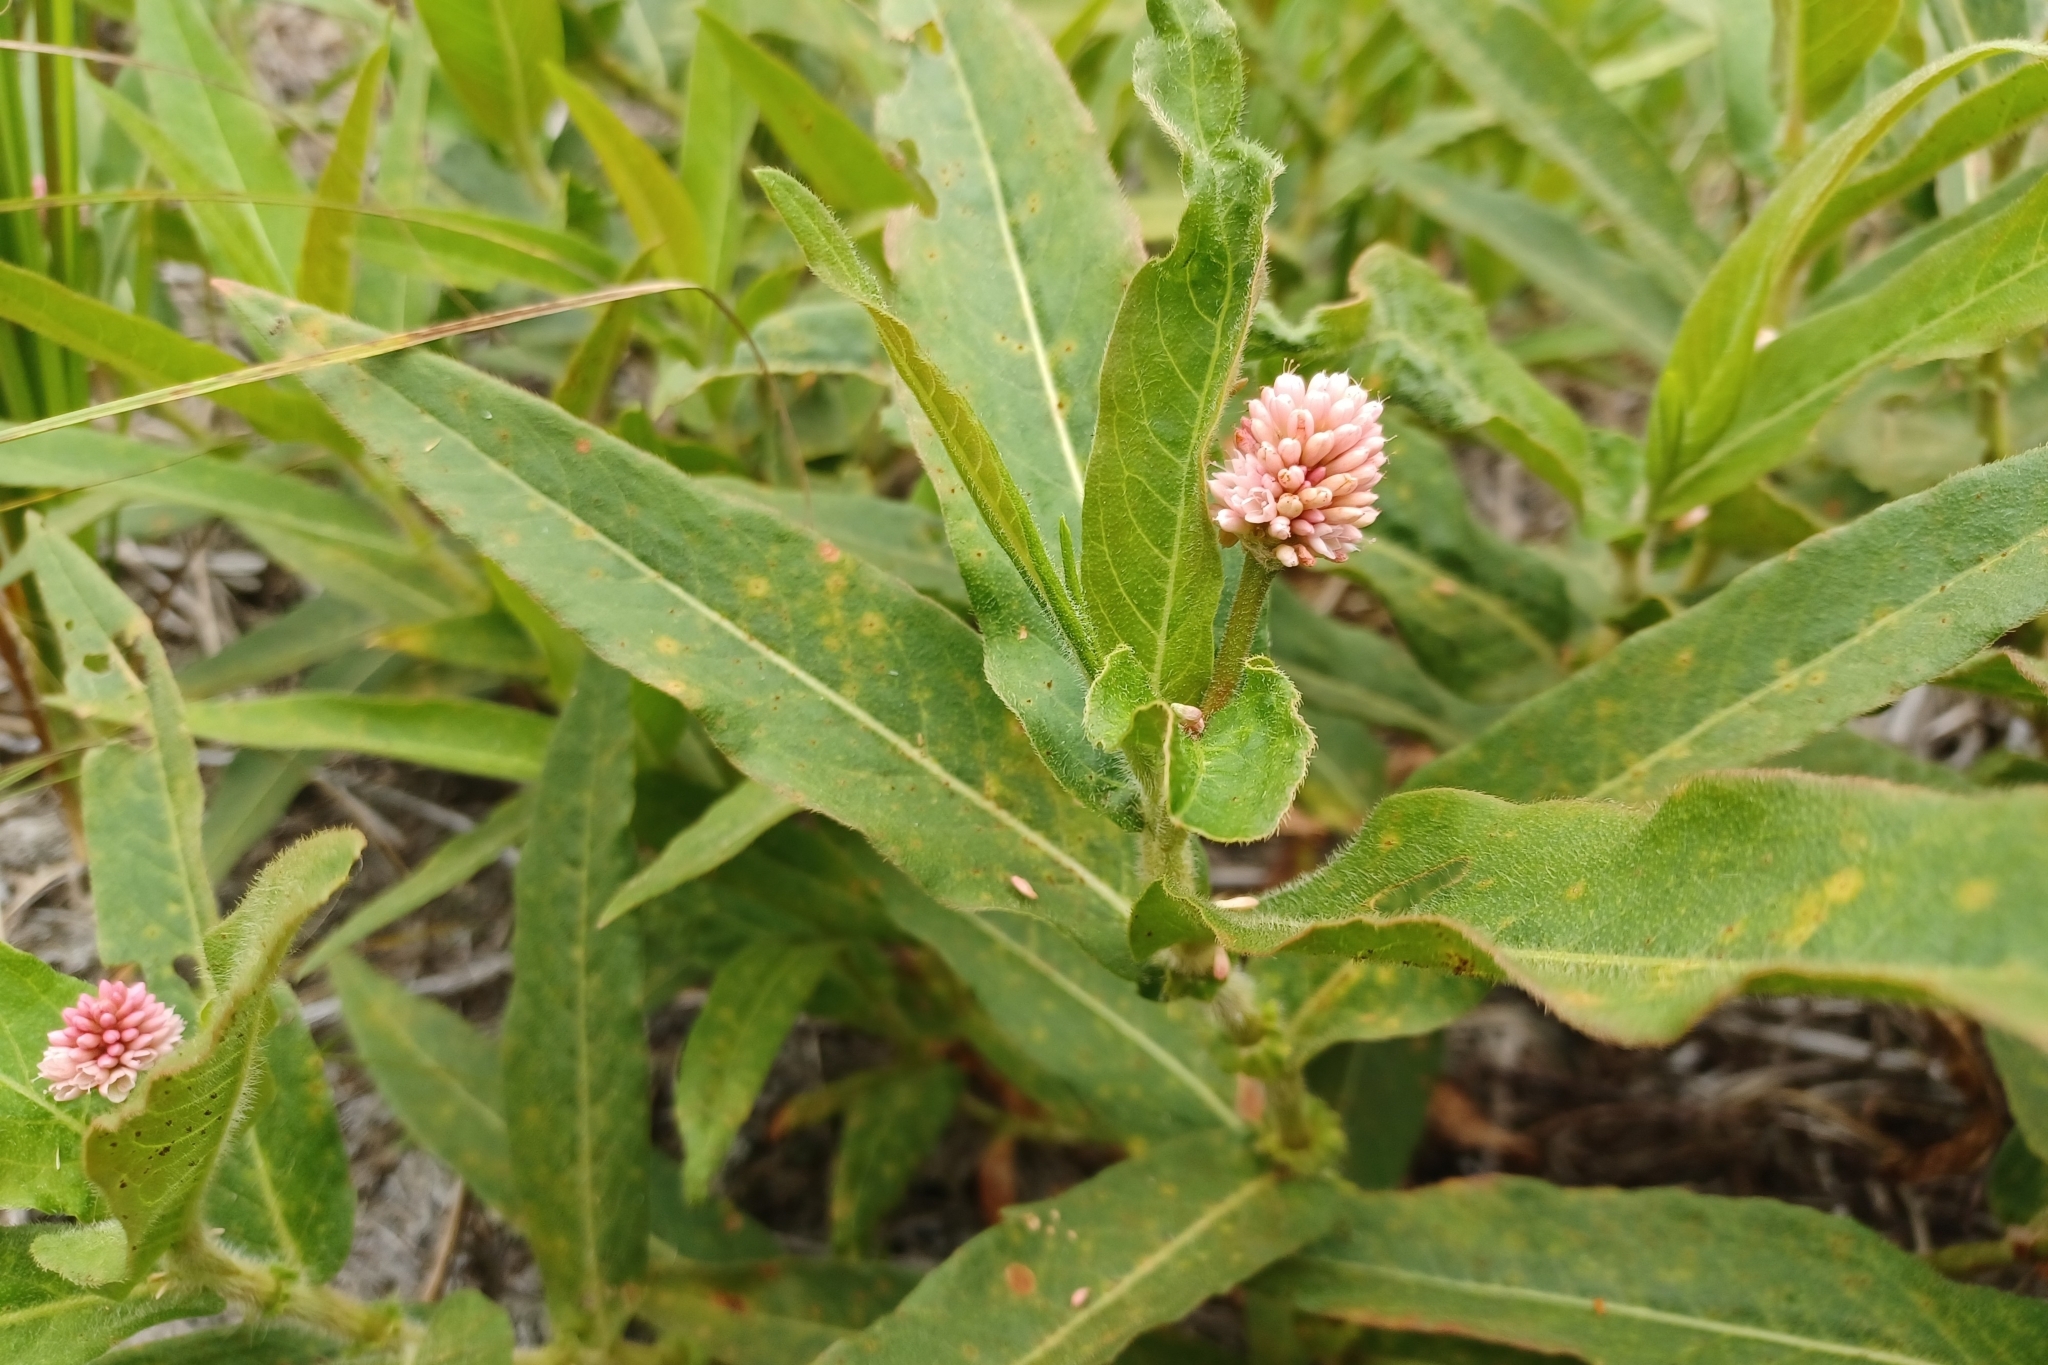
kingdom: Plantae
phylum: Tracheophyta
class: Magnoliopsida
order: Caryophyllales
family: Polygonaceae
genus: Persicaria
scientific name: Persicaria amphibia
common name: Amphibious bistort
